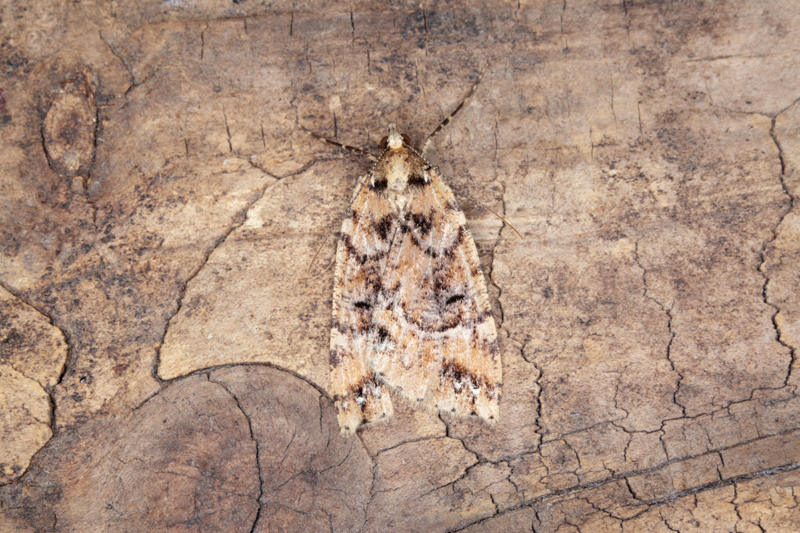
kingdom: Animalia
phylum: Arthropoda
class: Insecta
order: Lepidoptera
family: Geometridae
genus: Pseudocoremia
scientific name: Pseudocoremia ombrodes
